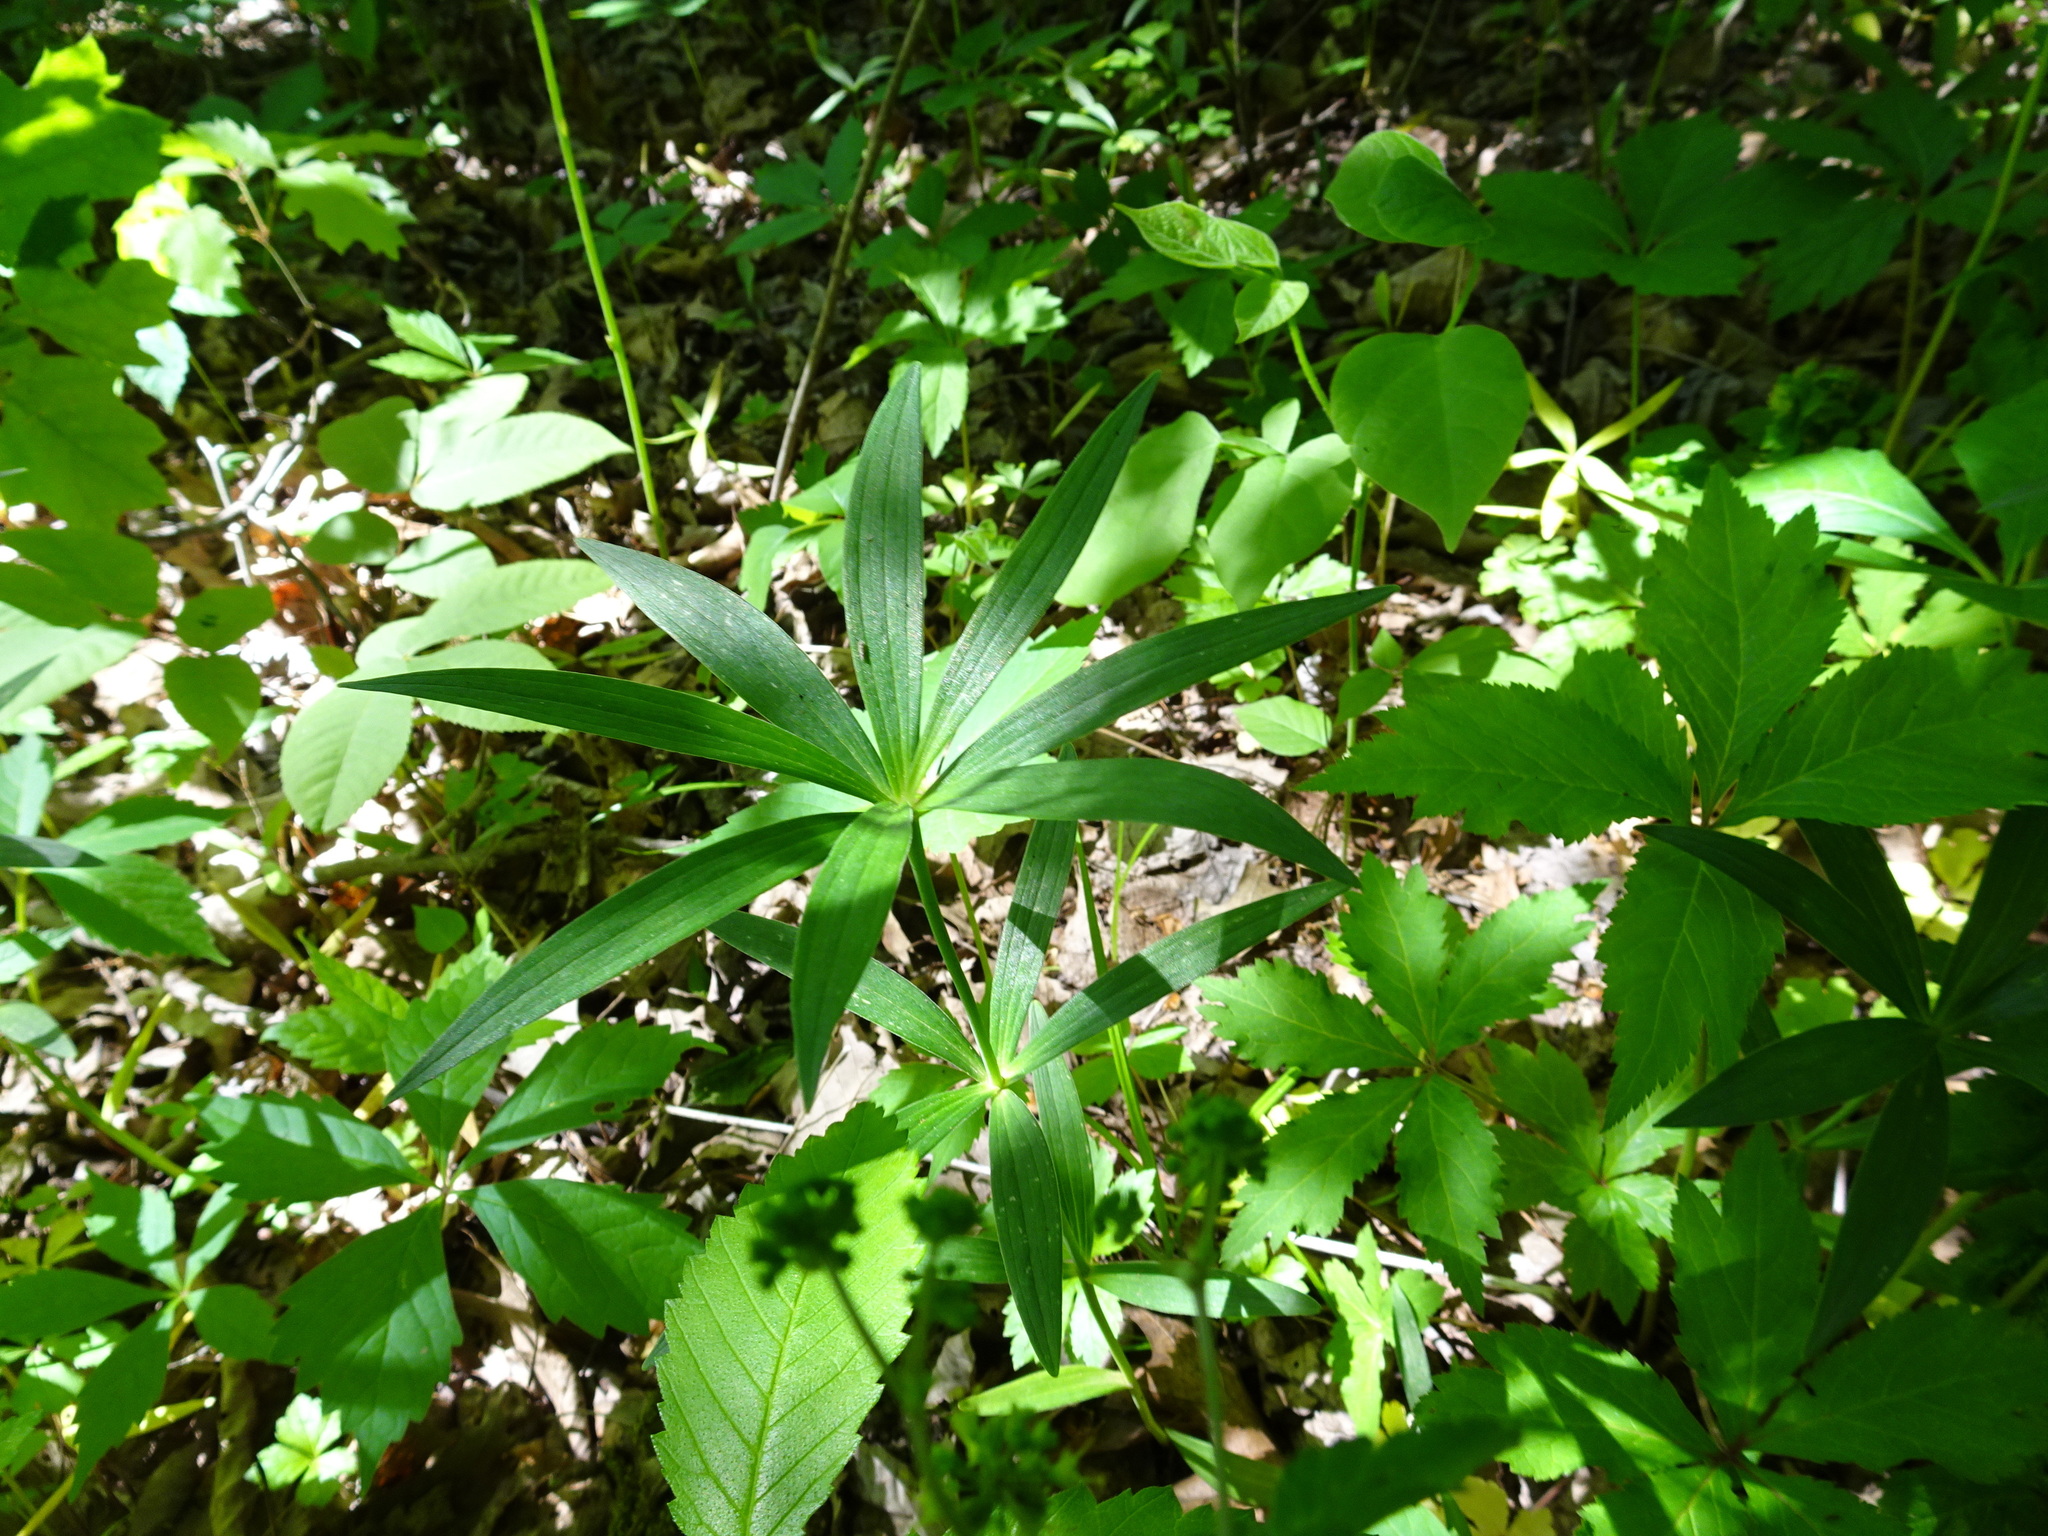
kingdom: Plantae
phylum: Tracheophyta
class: Liliopsida
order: Liliales
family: Liliaceae
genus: Lilium
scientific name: Lilium michiganense
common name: Michigan lily
